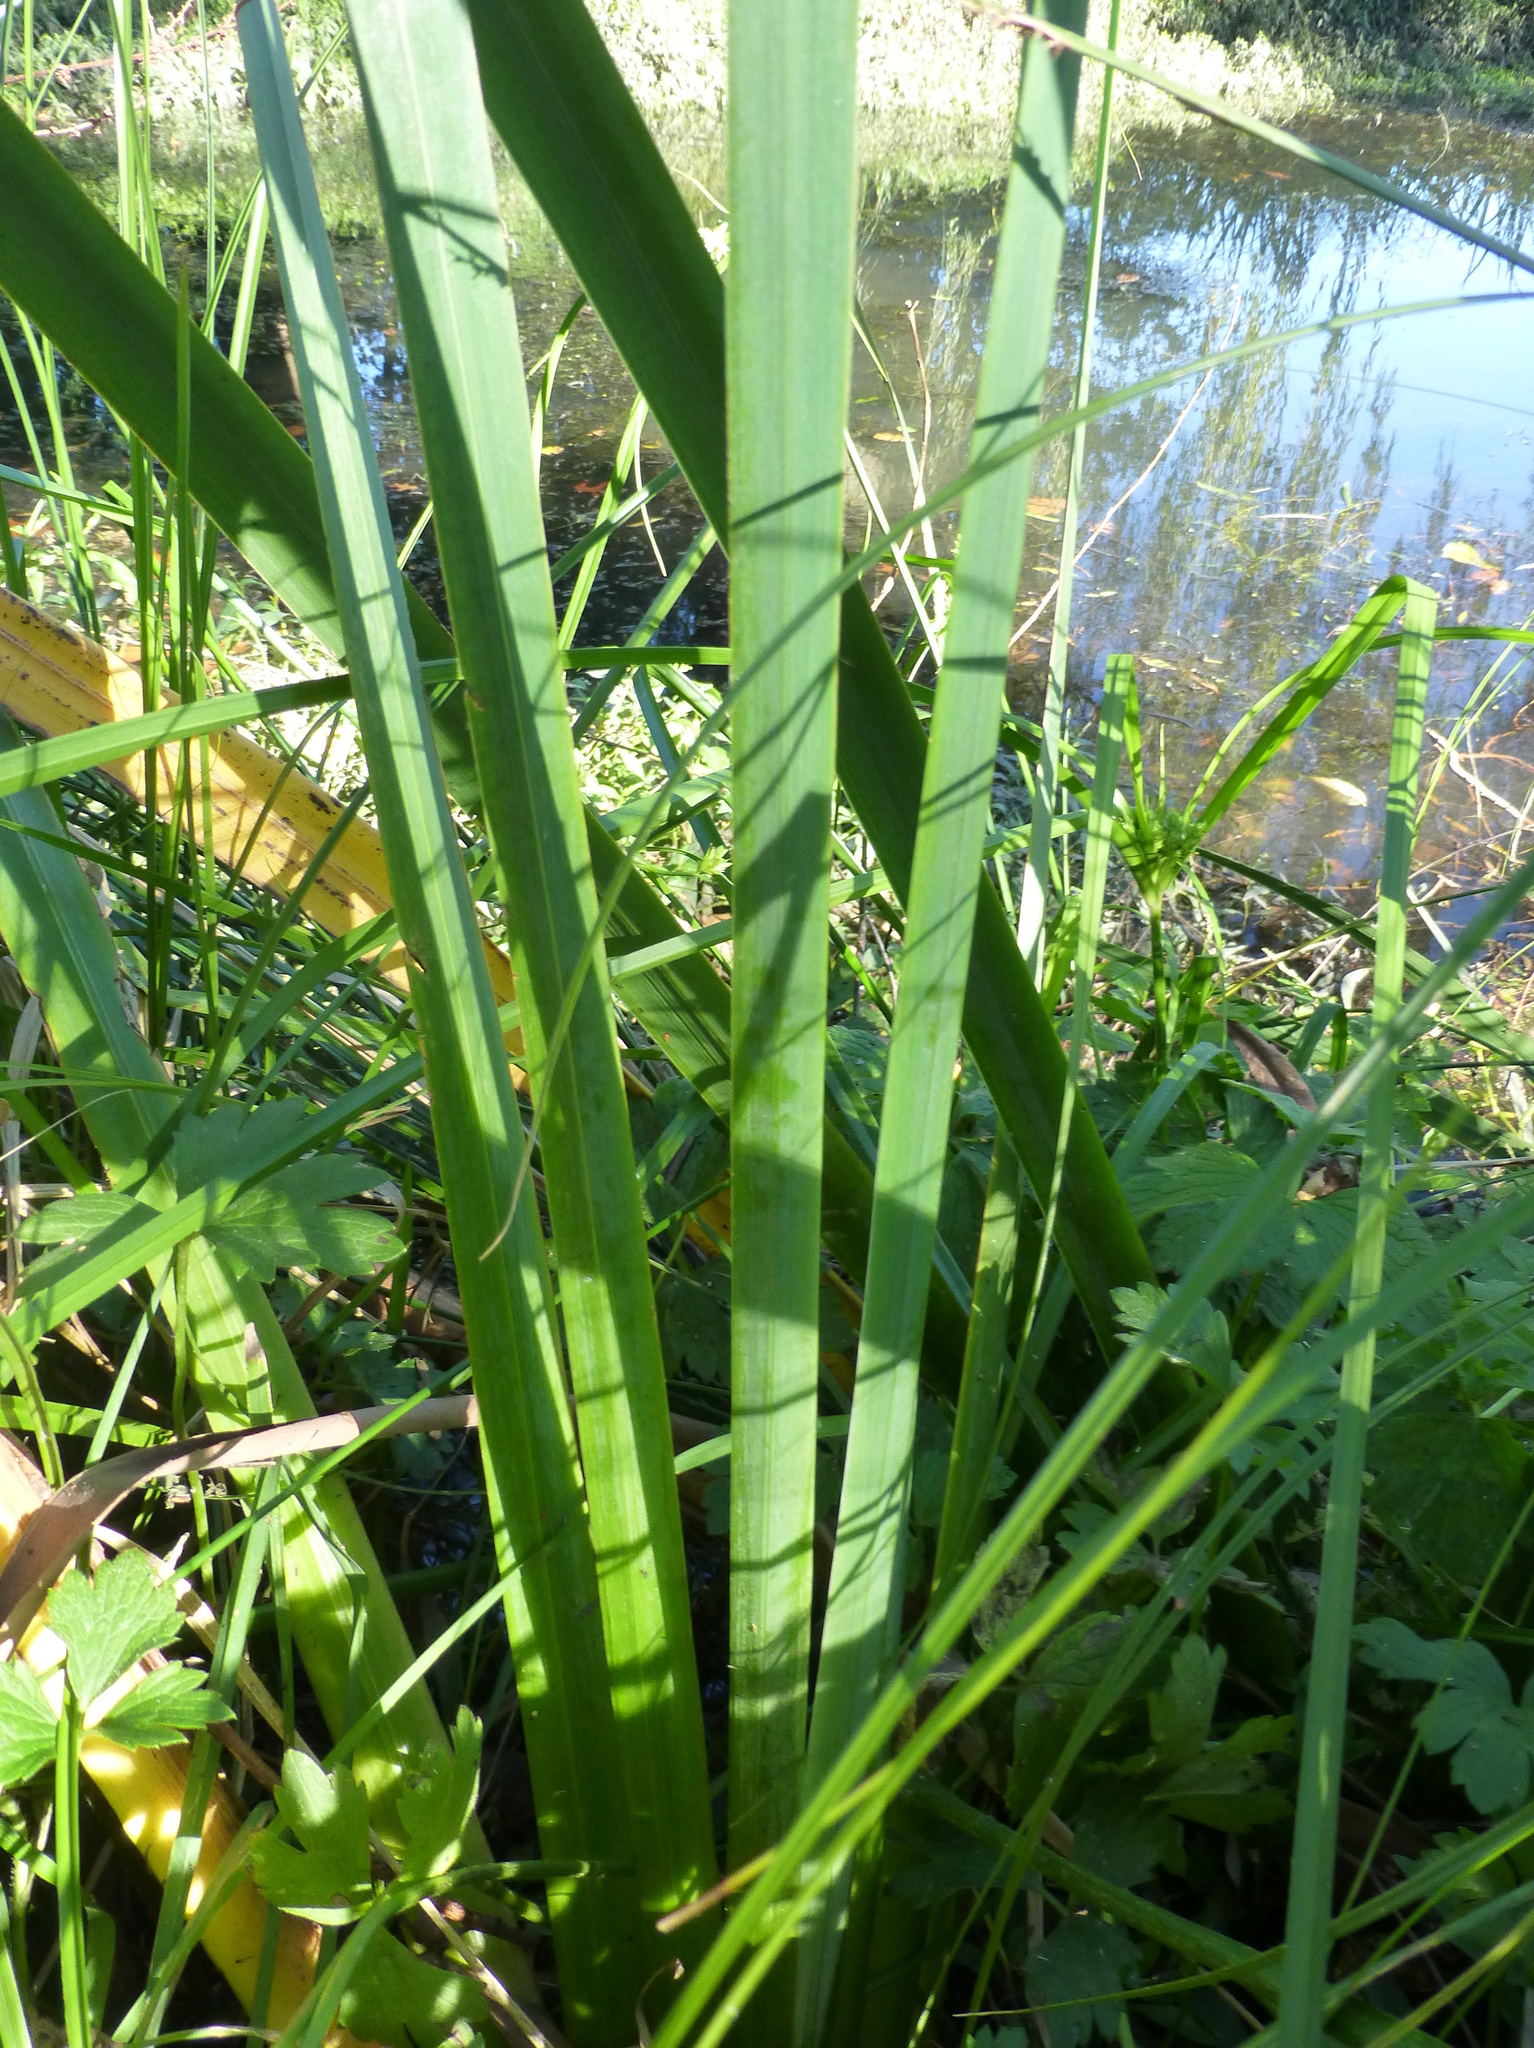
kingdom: Plantae
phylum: Tracheophyta
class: Liliopsida
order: Asparagales
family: Iridaceae
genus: Iris
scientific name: Iris pseudacorus
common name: Yellow flag
